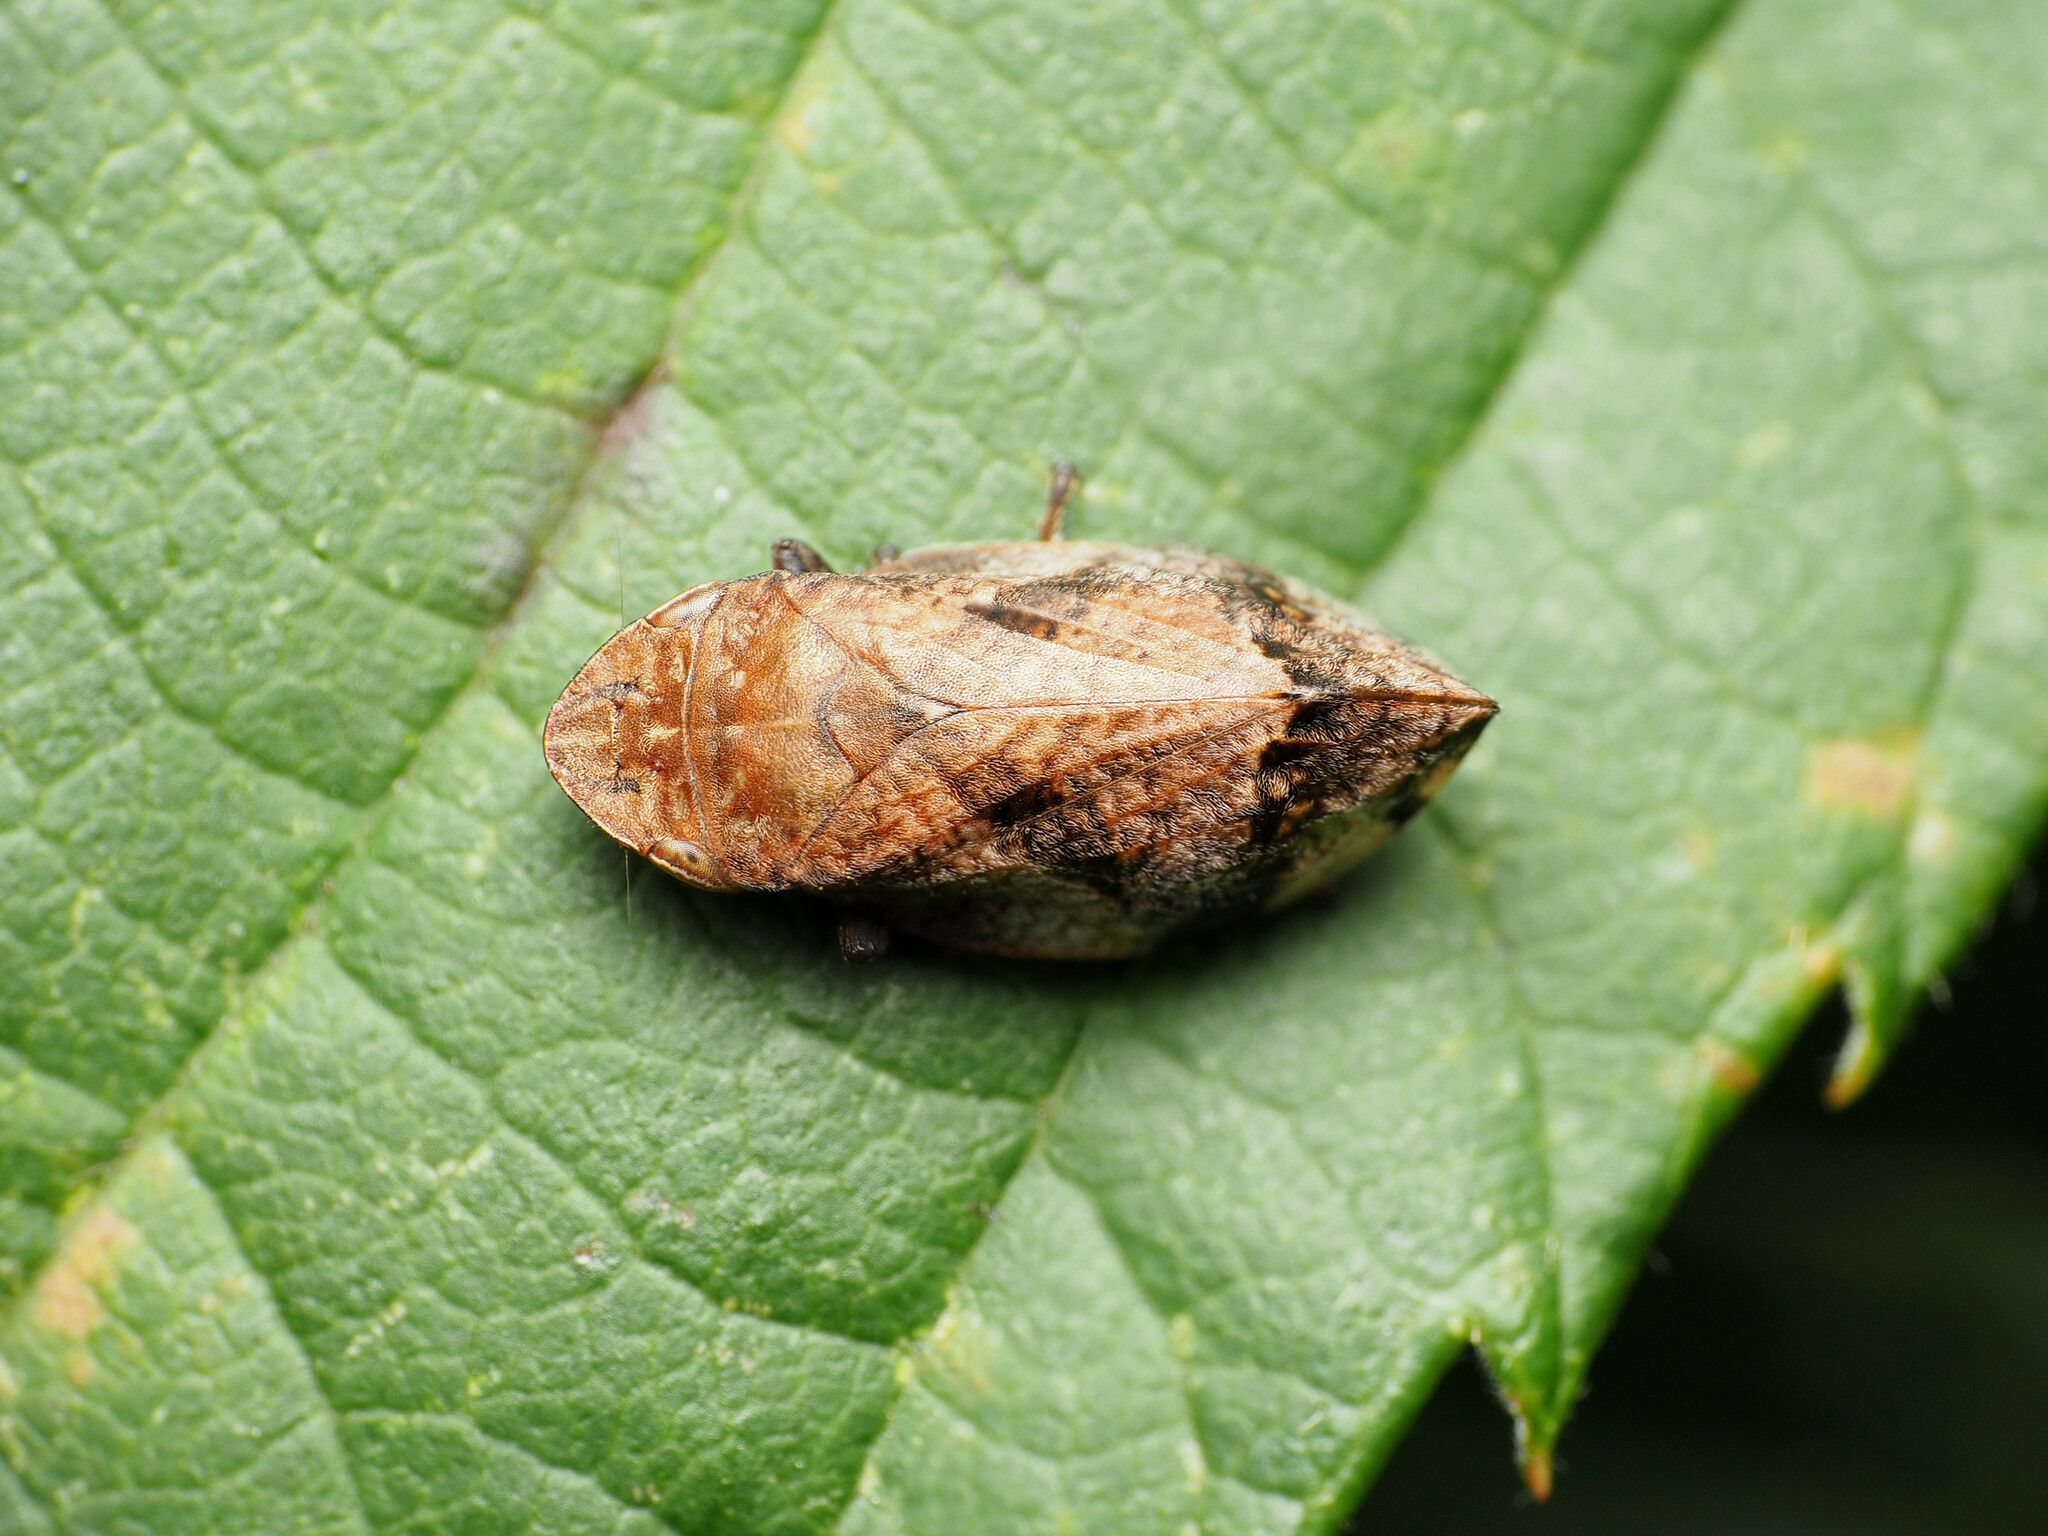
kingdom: Animalia
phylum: Arthropoda
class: Insecta
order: Hemiptera
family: Aphrophoridae
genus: Lepyronia
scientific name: Lepyronia quadrangularis
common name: Diamond-backed spittlebug
